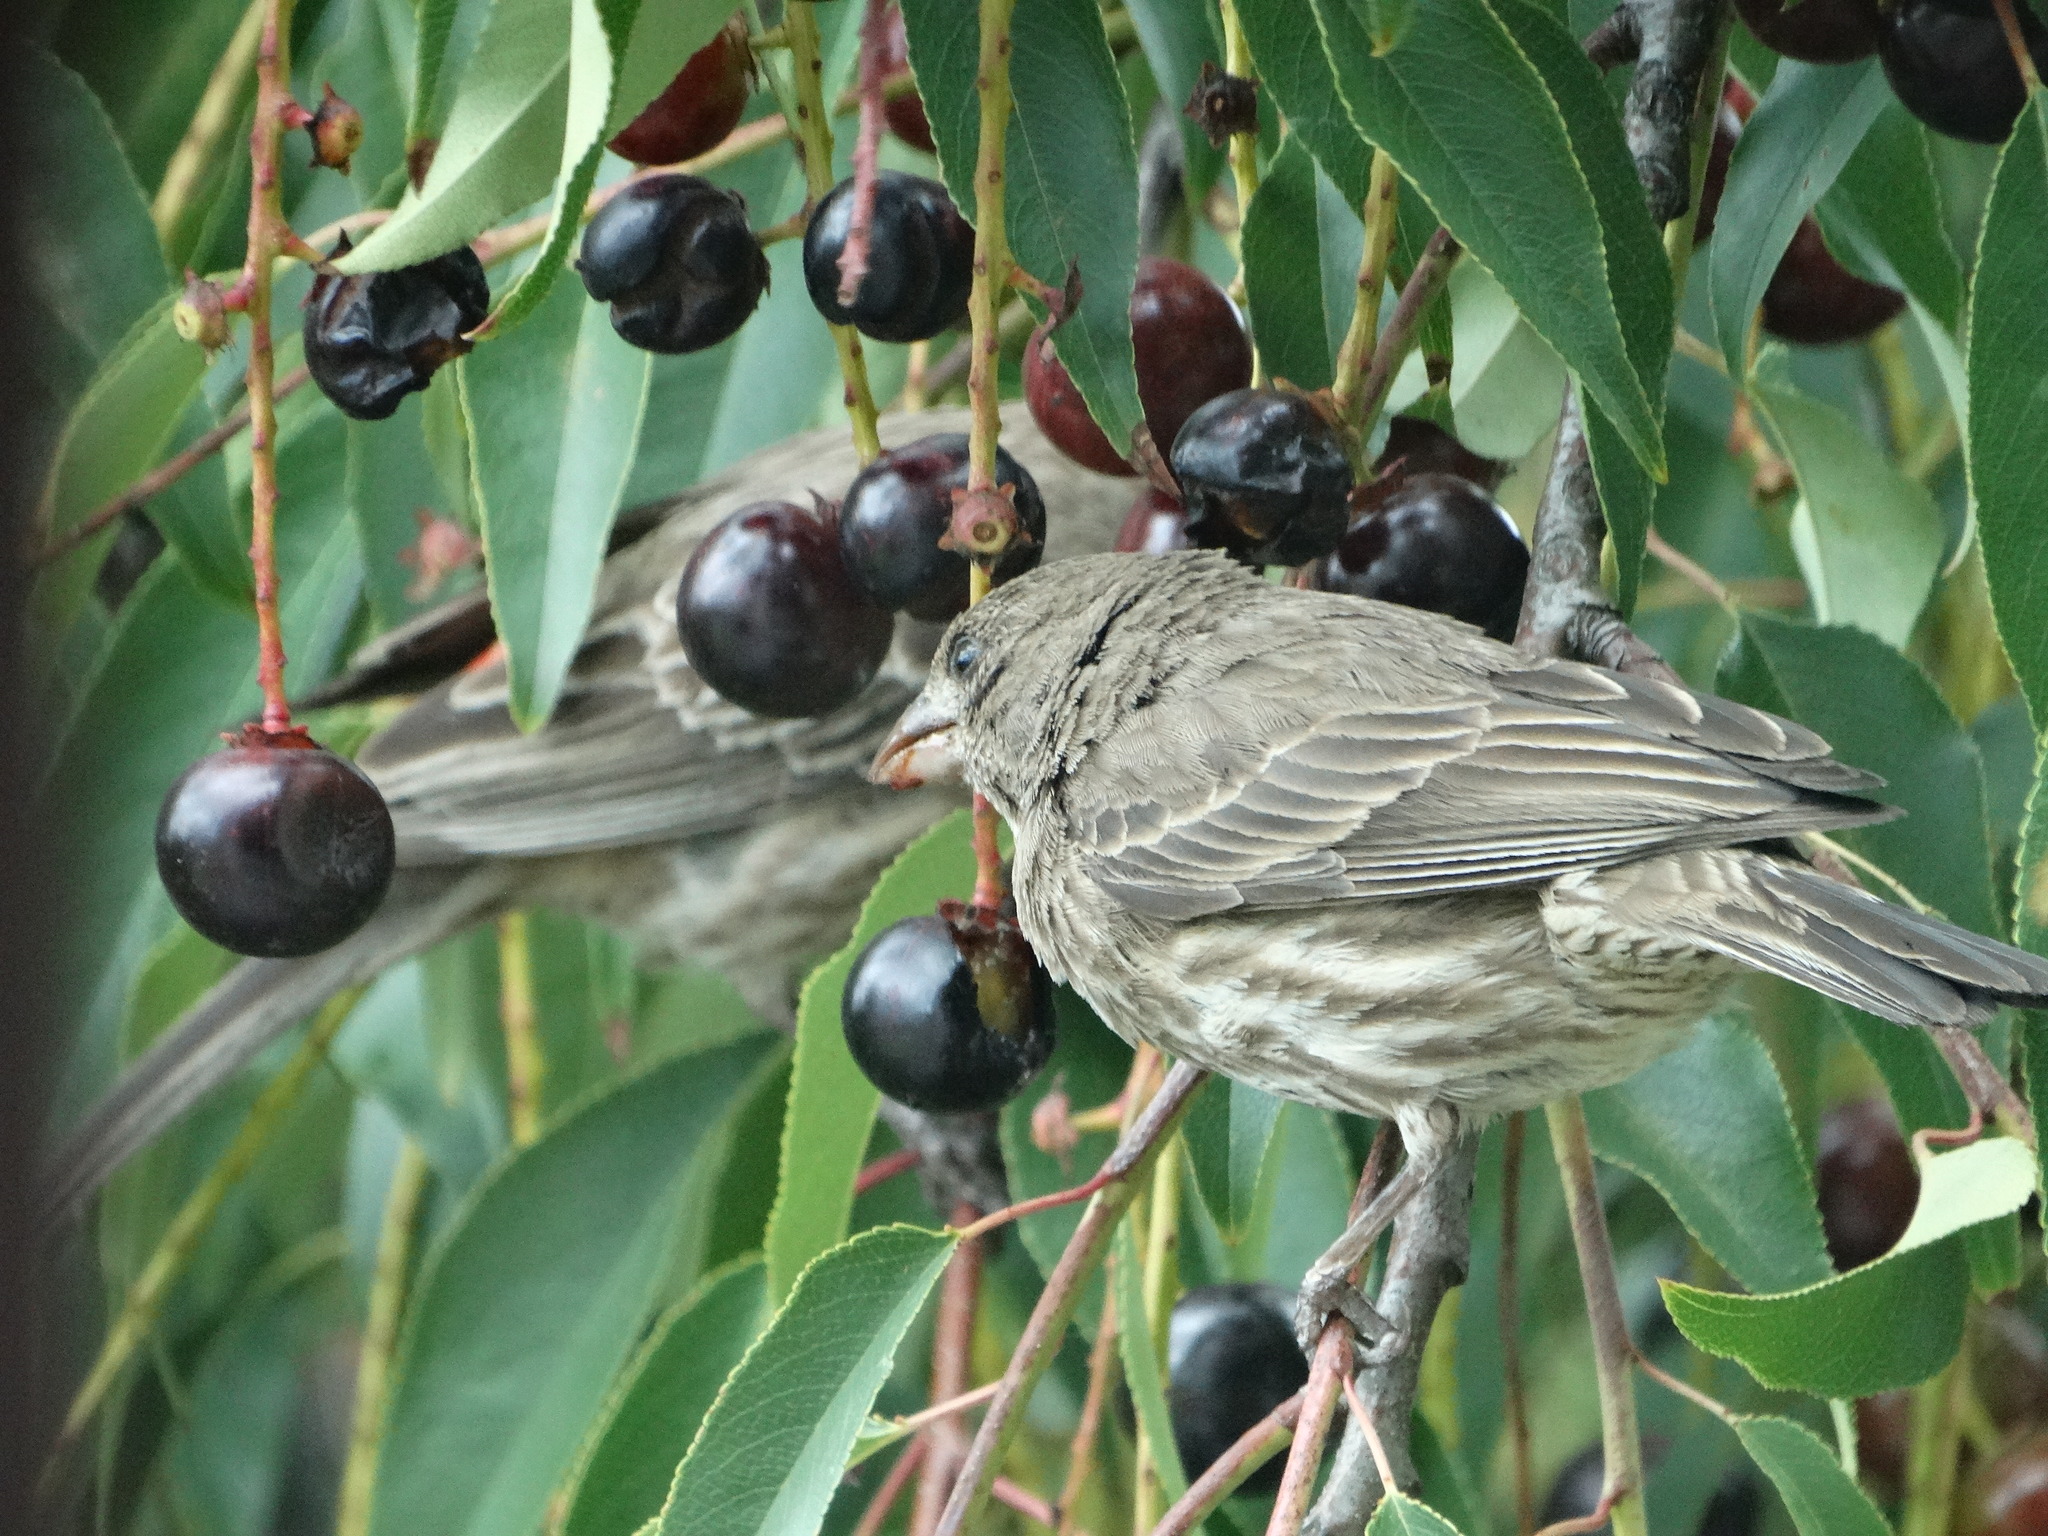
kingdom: Animalia
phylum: Chordata
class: Aves
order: Passeriformes
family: Fringillidae
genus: Haemorhous
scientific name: Haemorhous mexicanus
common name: House finch
